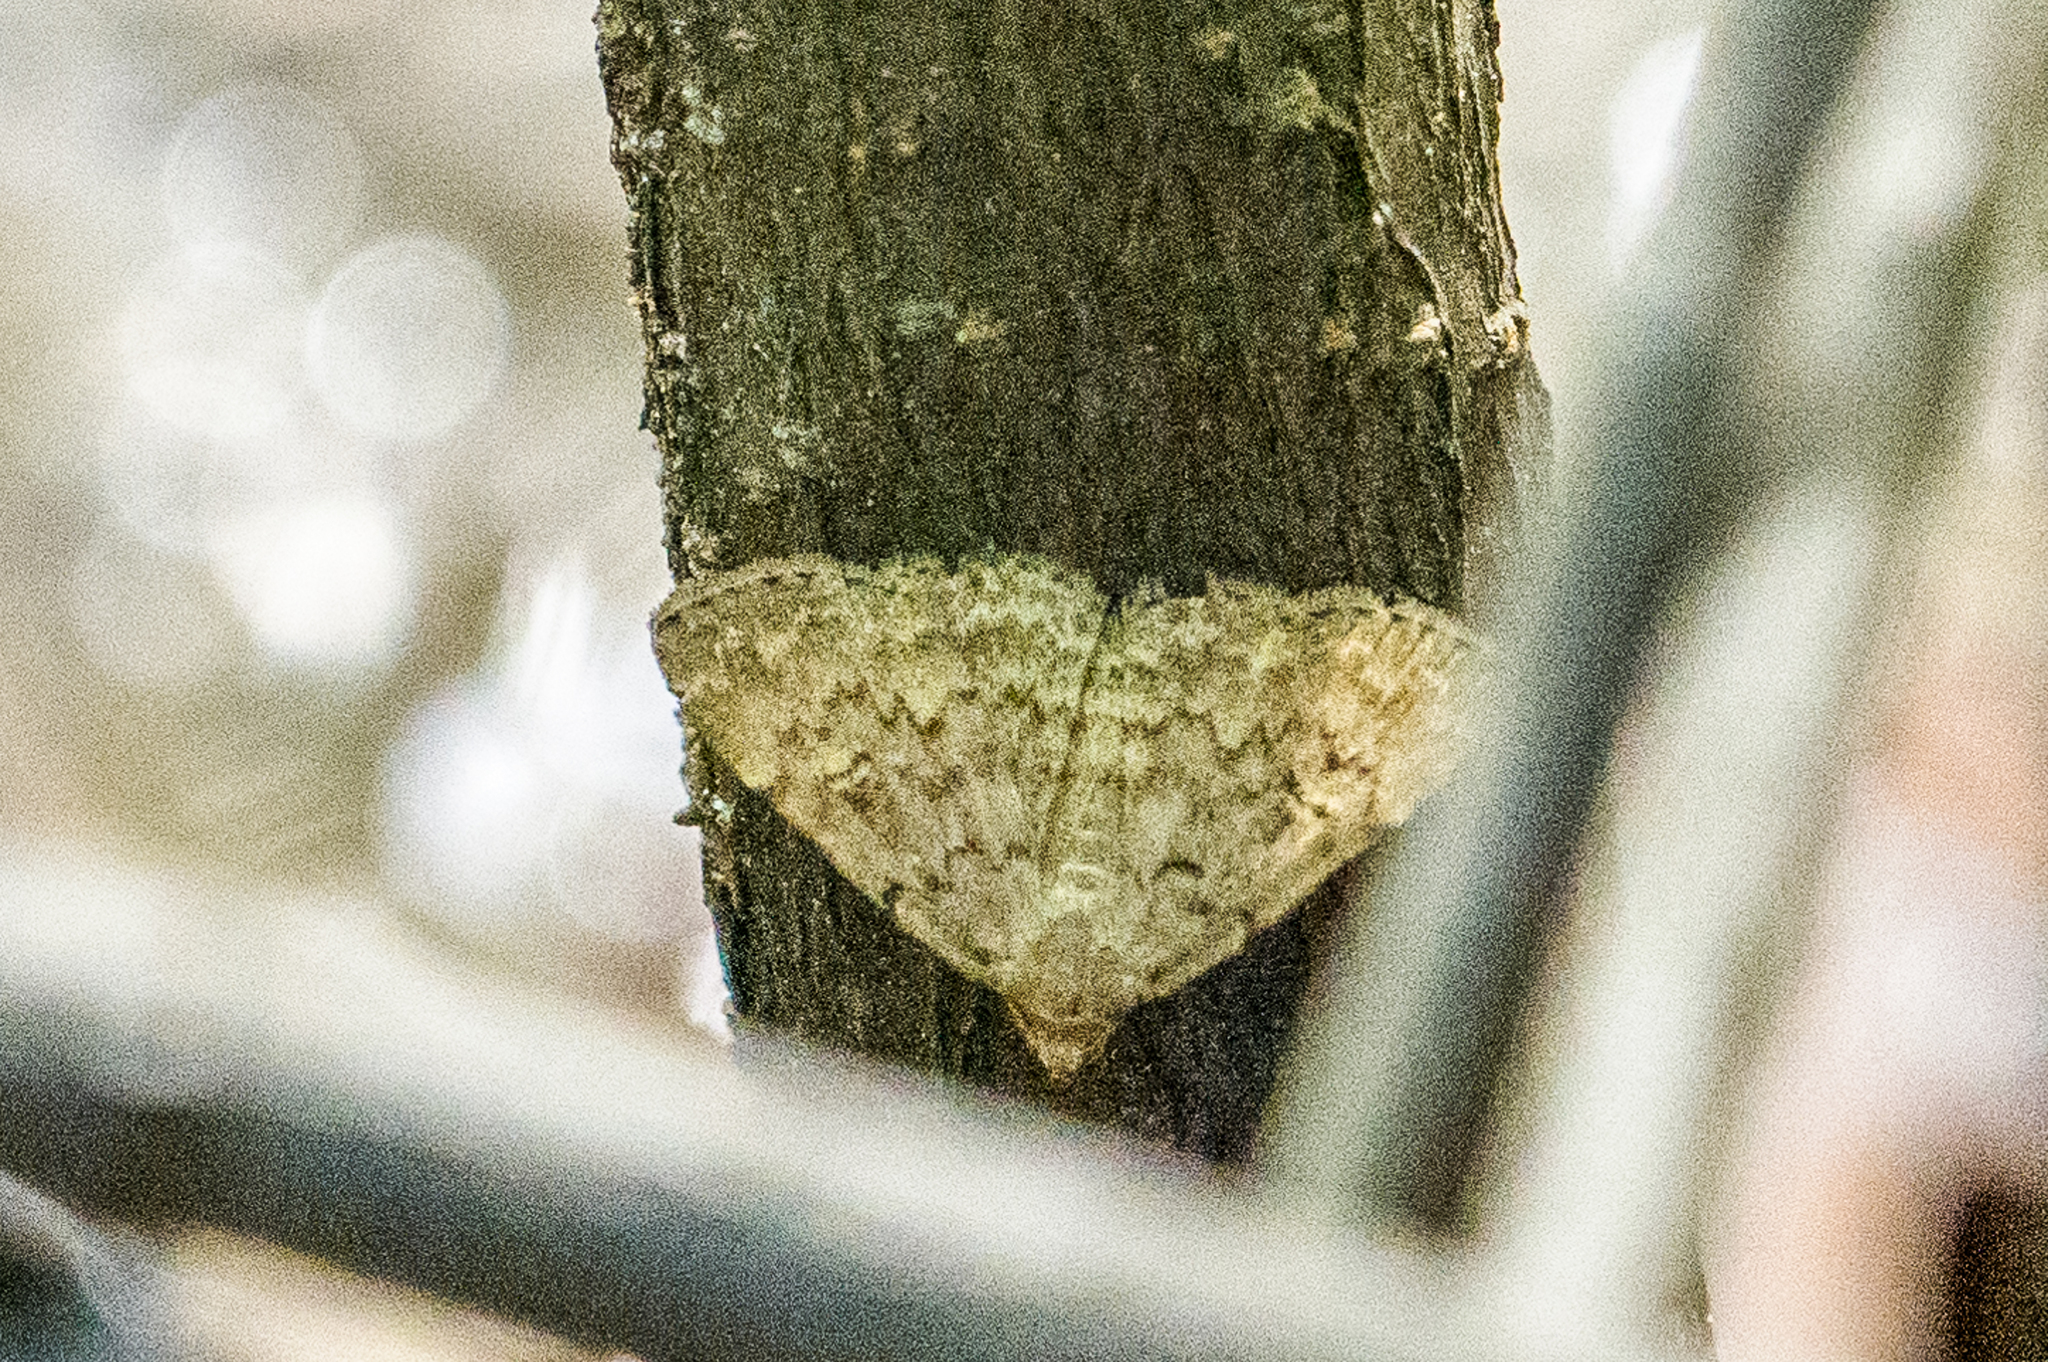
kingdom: Animalia
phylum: Arthropoda
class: Insecta
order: Lepidoptera
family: Erebidae
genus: Idia
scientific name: Idia aemula
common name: Common idia moth
